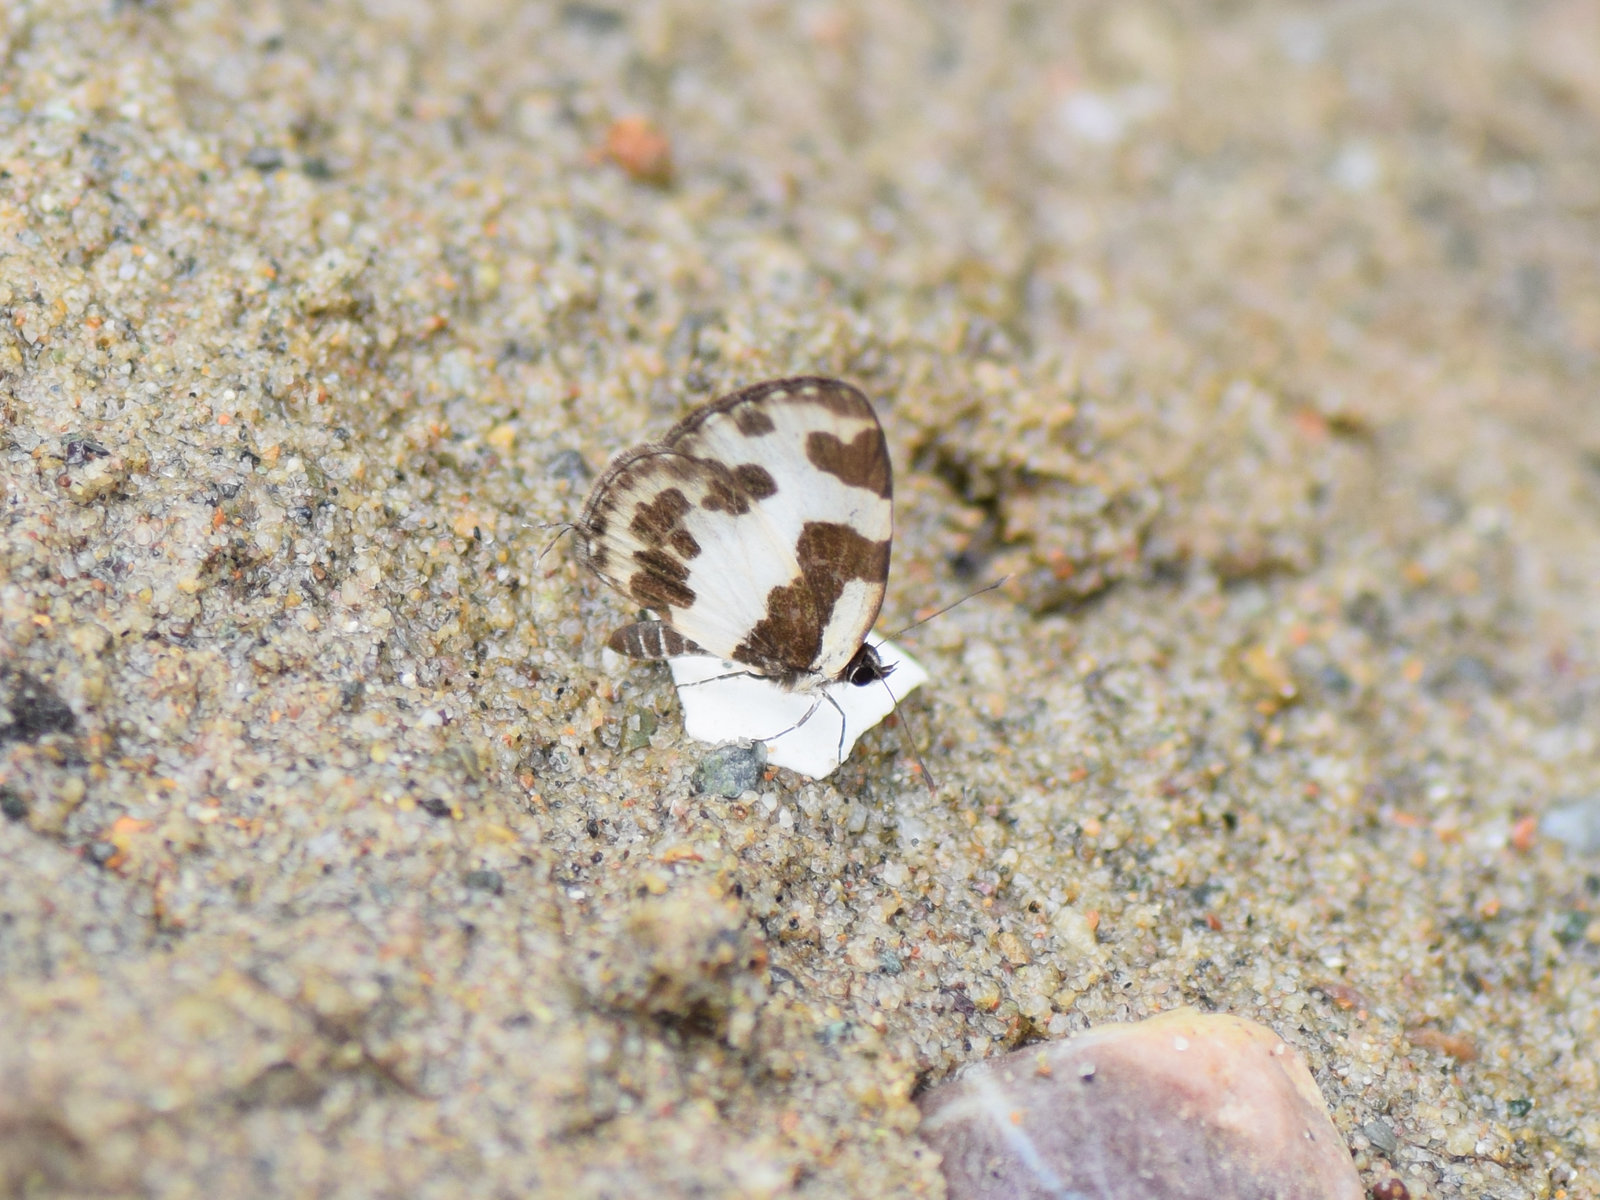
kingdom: Animalia
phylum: Arthropoda
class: Insecta
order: Lepidoptera
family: Lycaenidae
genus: Caleta
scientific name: Caleta elna
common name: Elbowed pierrot
